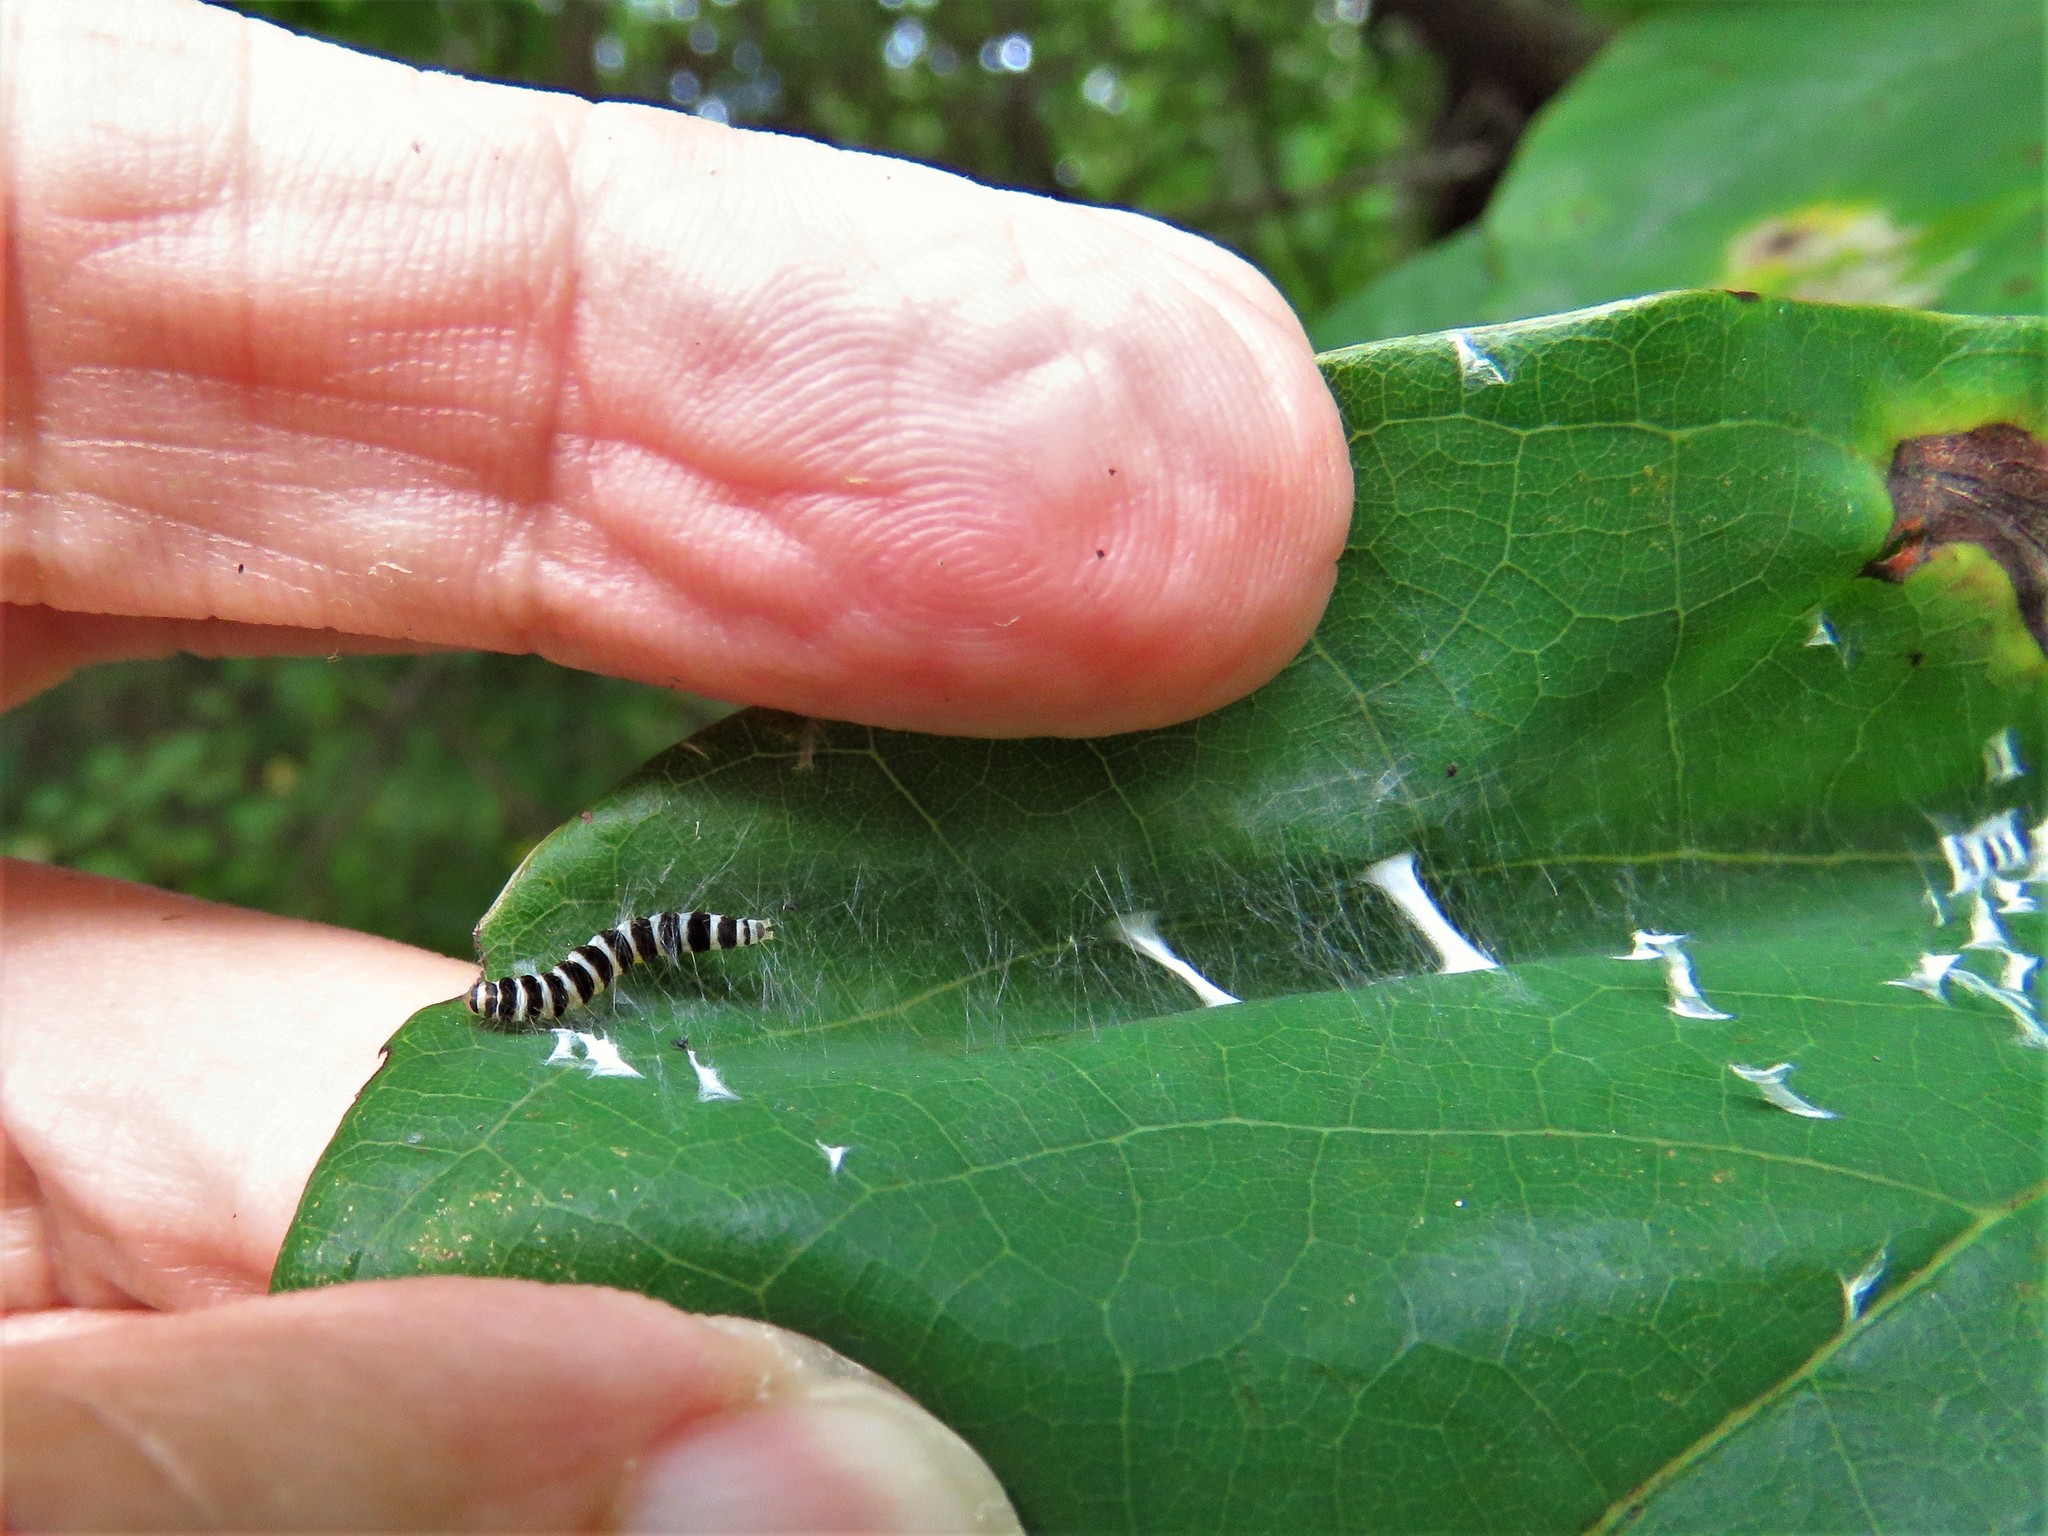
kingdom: Animalia
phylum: Arthropoda
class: Insecta
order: Lepidoptera
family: Gelechiidae
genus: Fascista
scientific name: Fascista cercerisella
